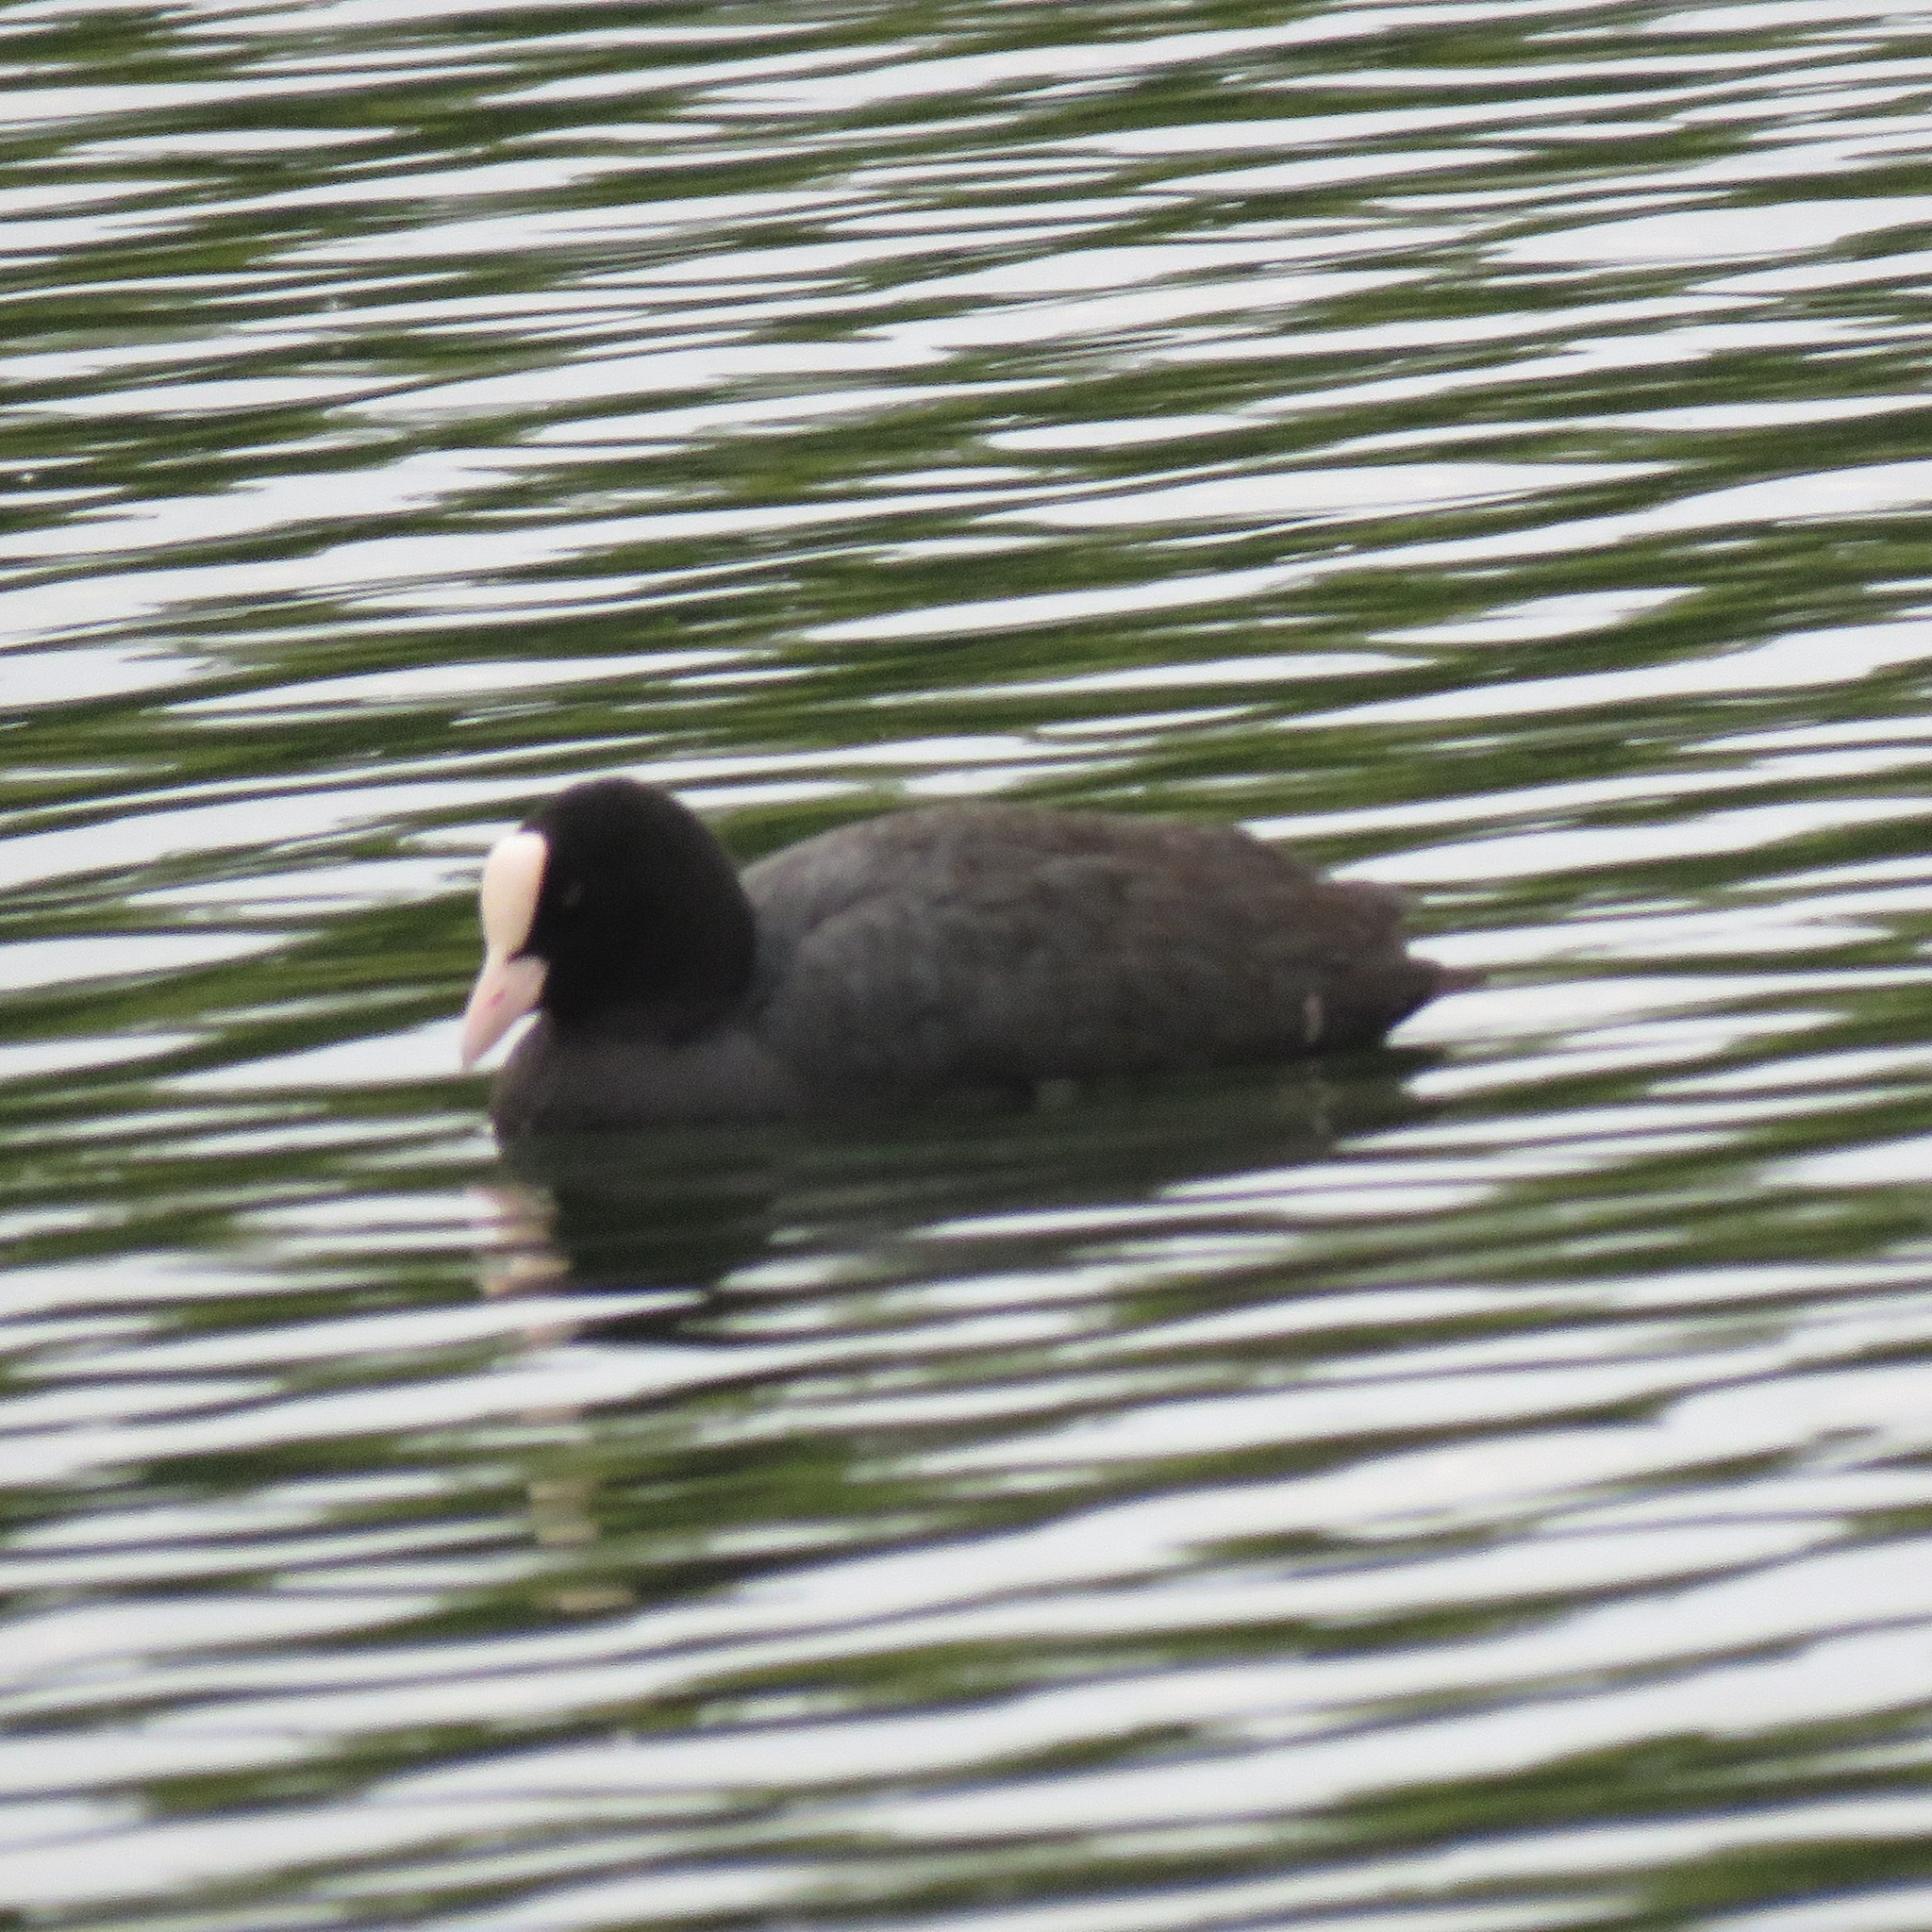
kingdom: Animalia
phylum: Chordata
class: Aves
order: Gruiformes
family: Rallidae
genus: Fulica
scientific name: Fulica atra
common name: Eurasian coot
